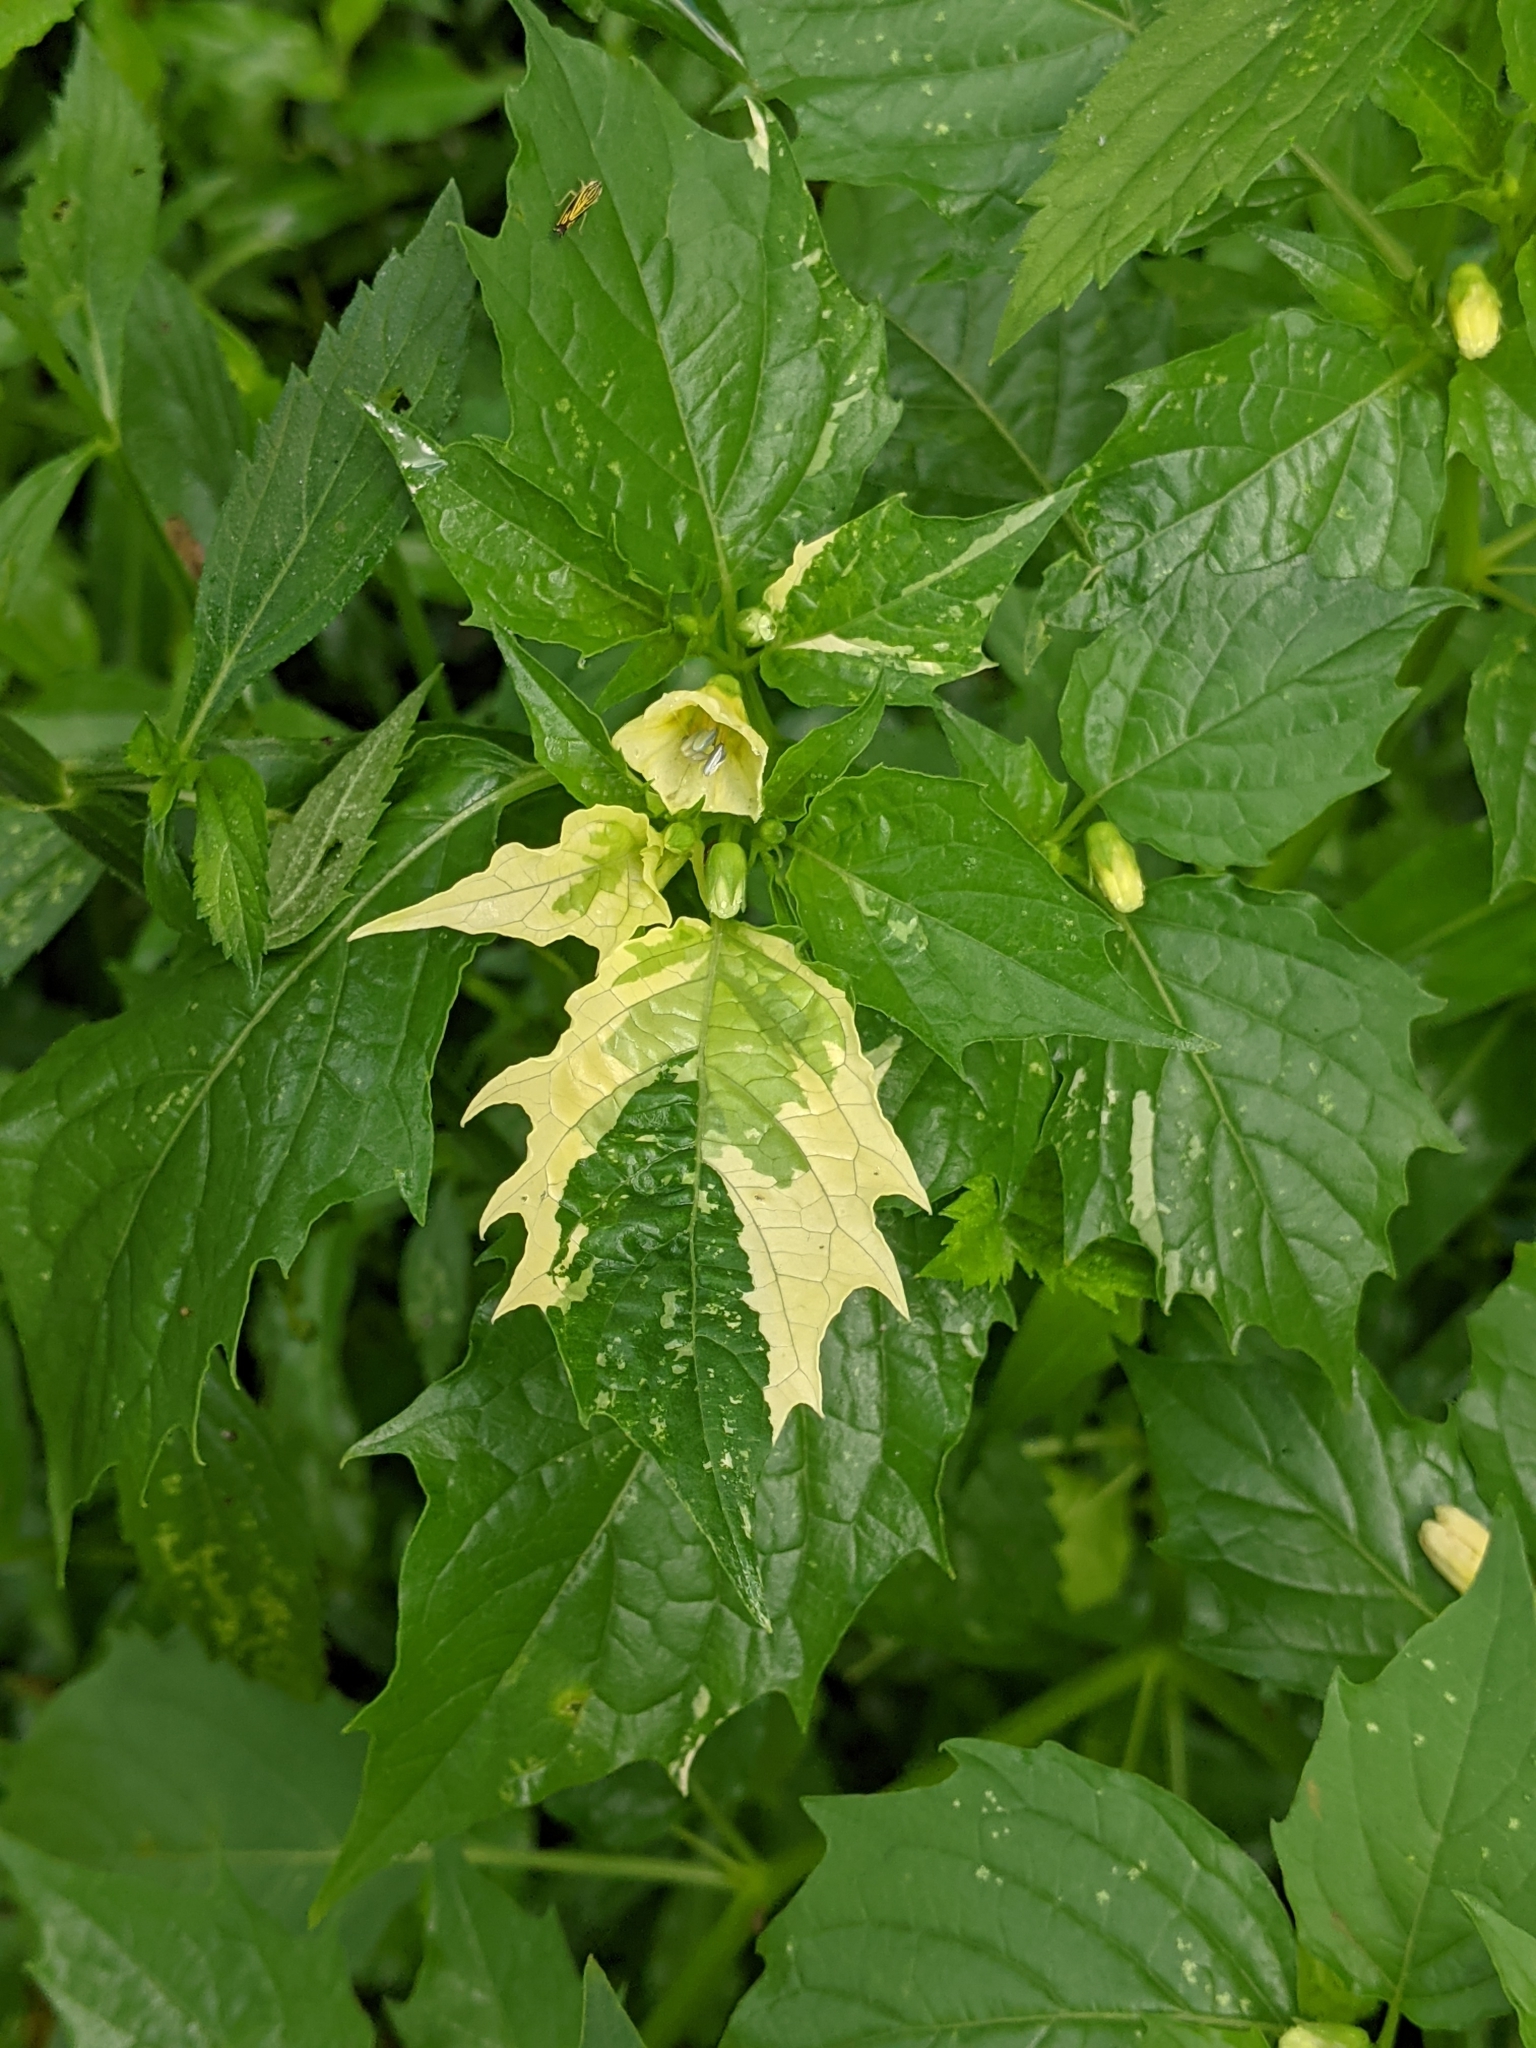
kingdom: Plantae
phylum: Tracheophyta
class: Magnoliopsida
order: Solanales
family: Solanaceae
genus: Physalis
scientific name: Physalis angulata
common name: Angular winter-cherry
